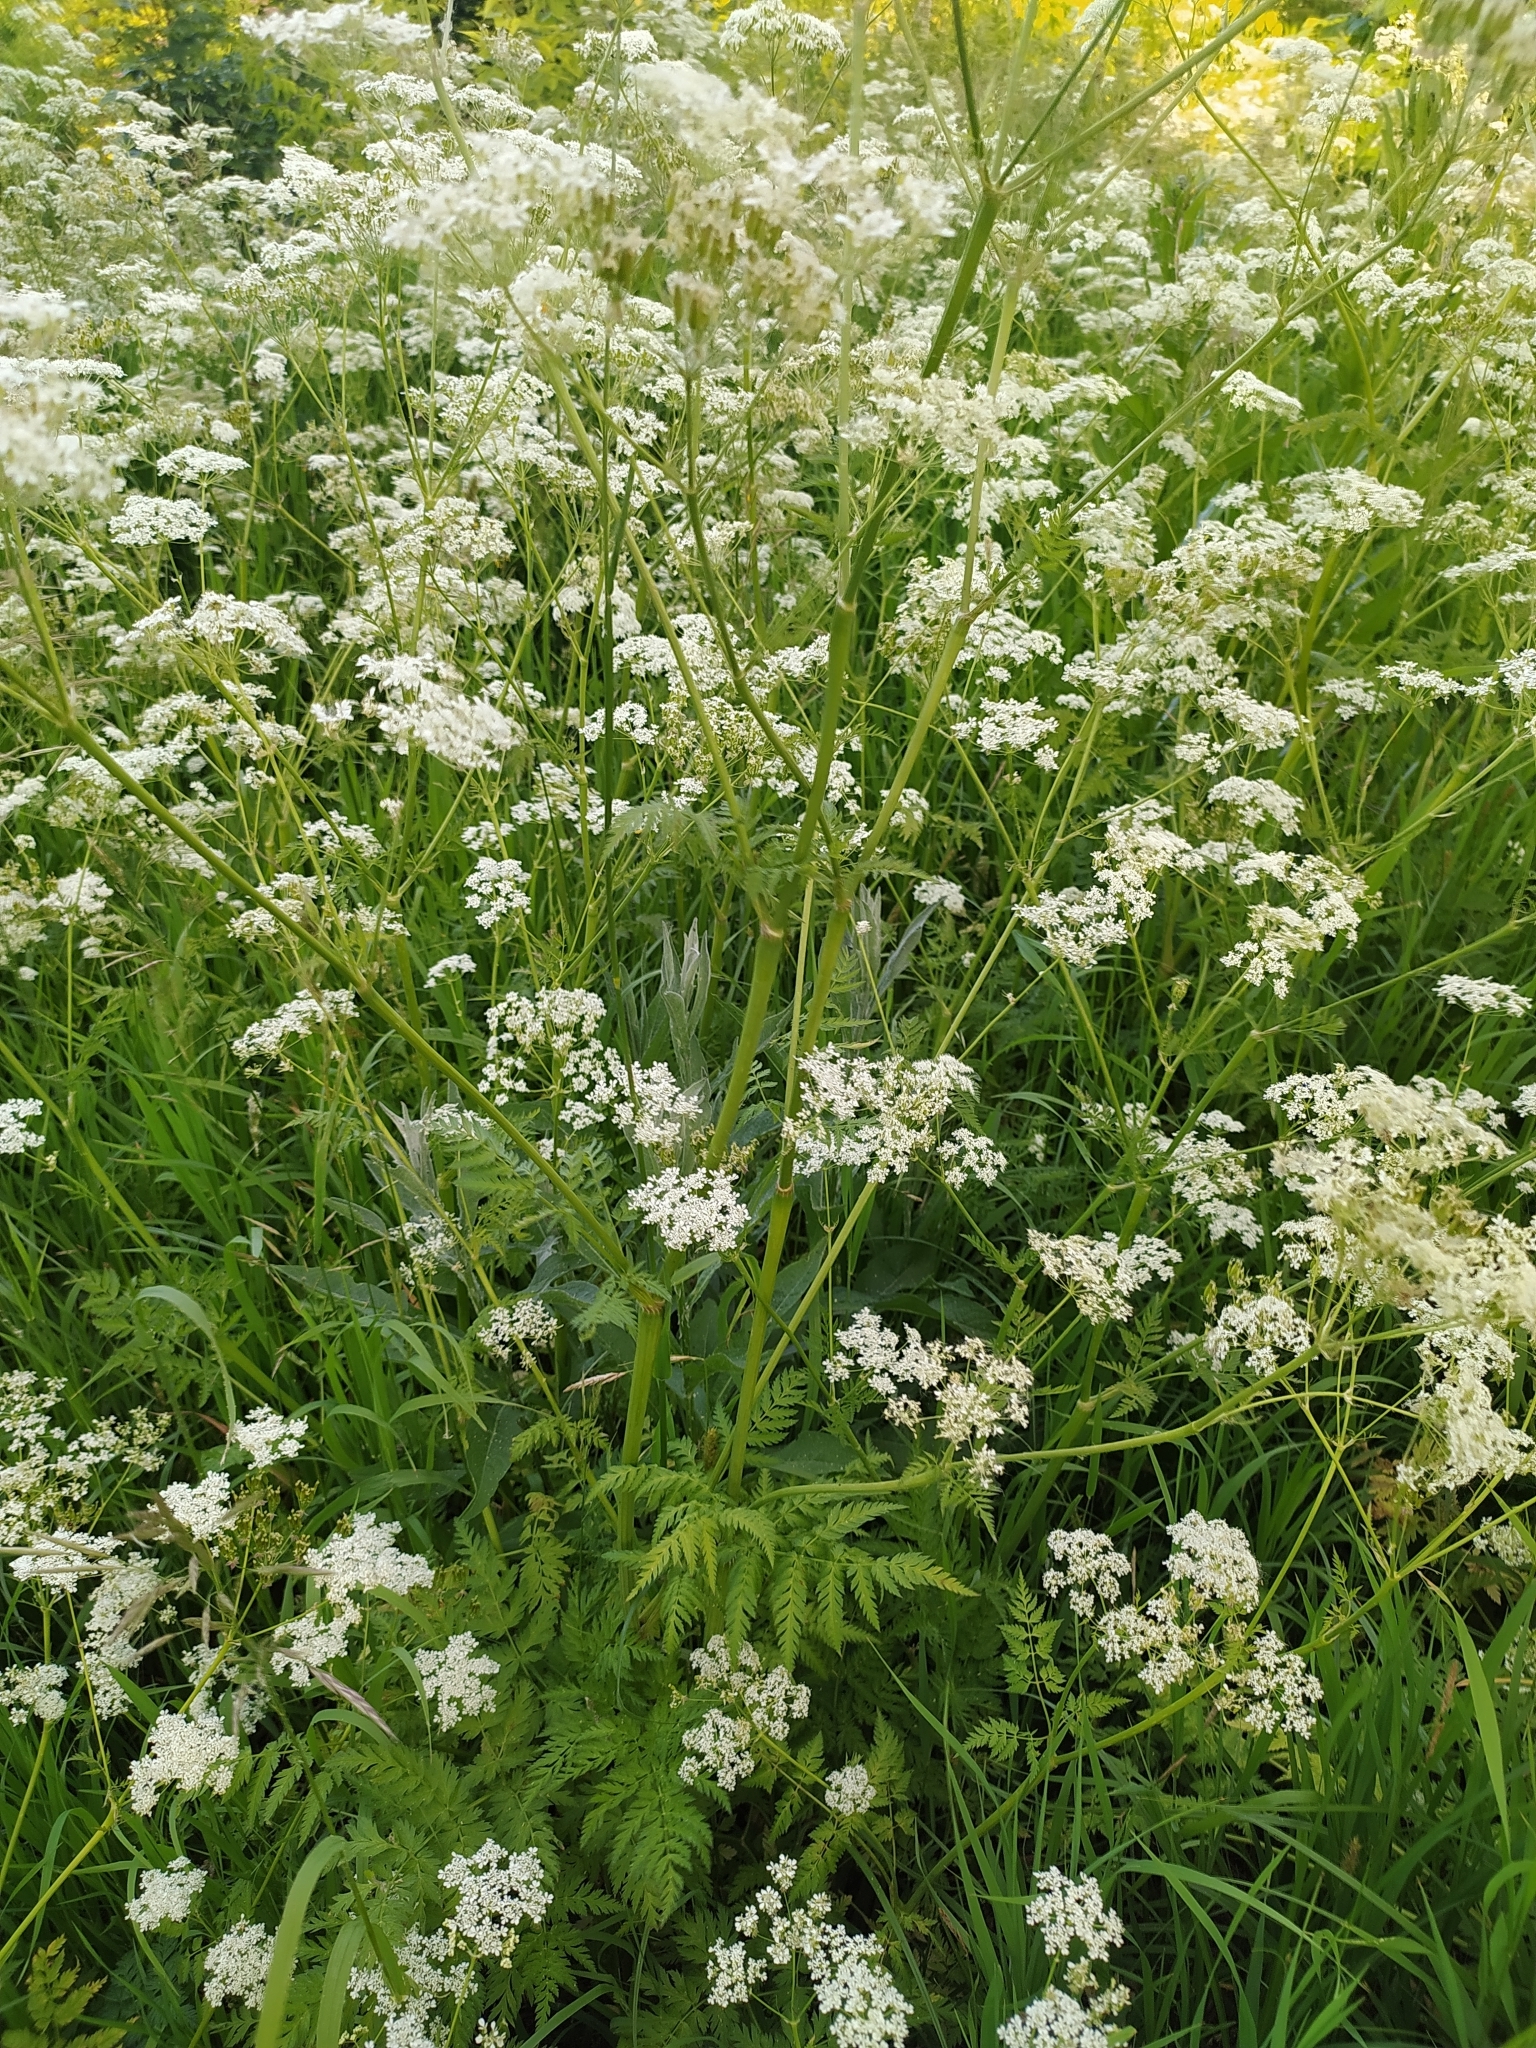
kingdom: Plantae
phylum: Tracheophyta
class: Magnoliopsida
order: Apiales
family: Apiaceae
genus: Anthriscus
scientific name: Anthriscus sylvestris
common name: Cow parsley
